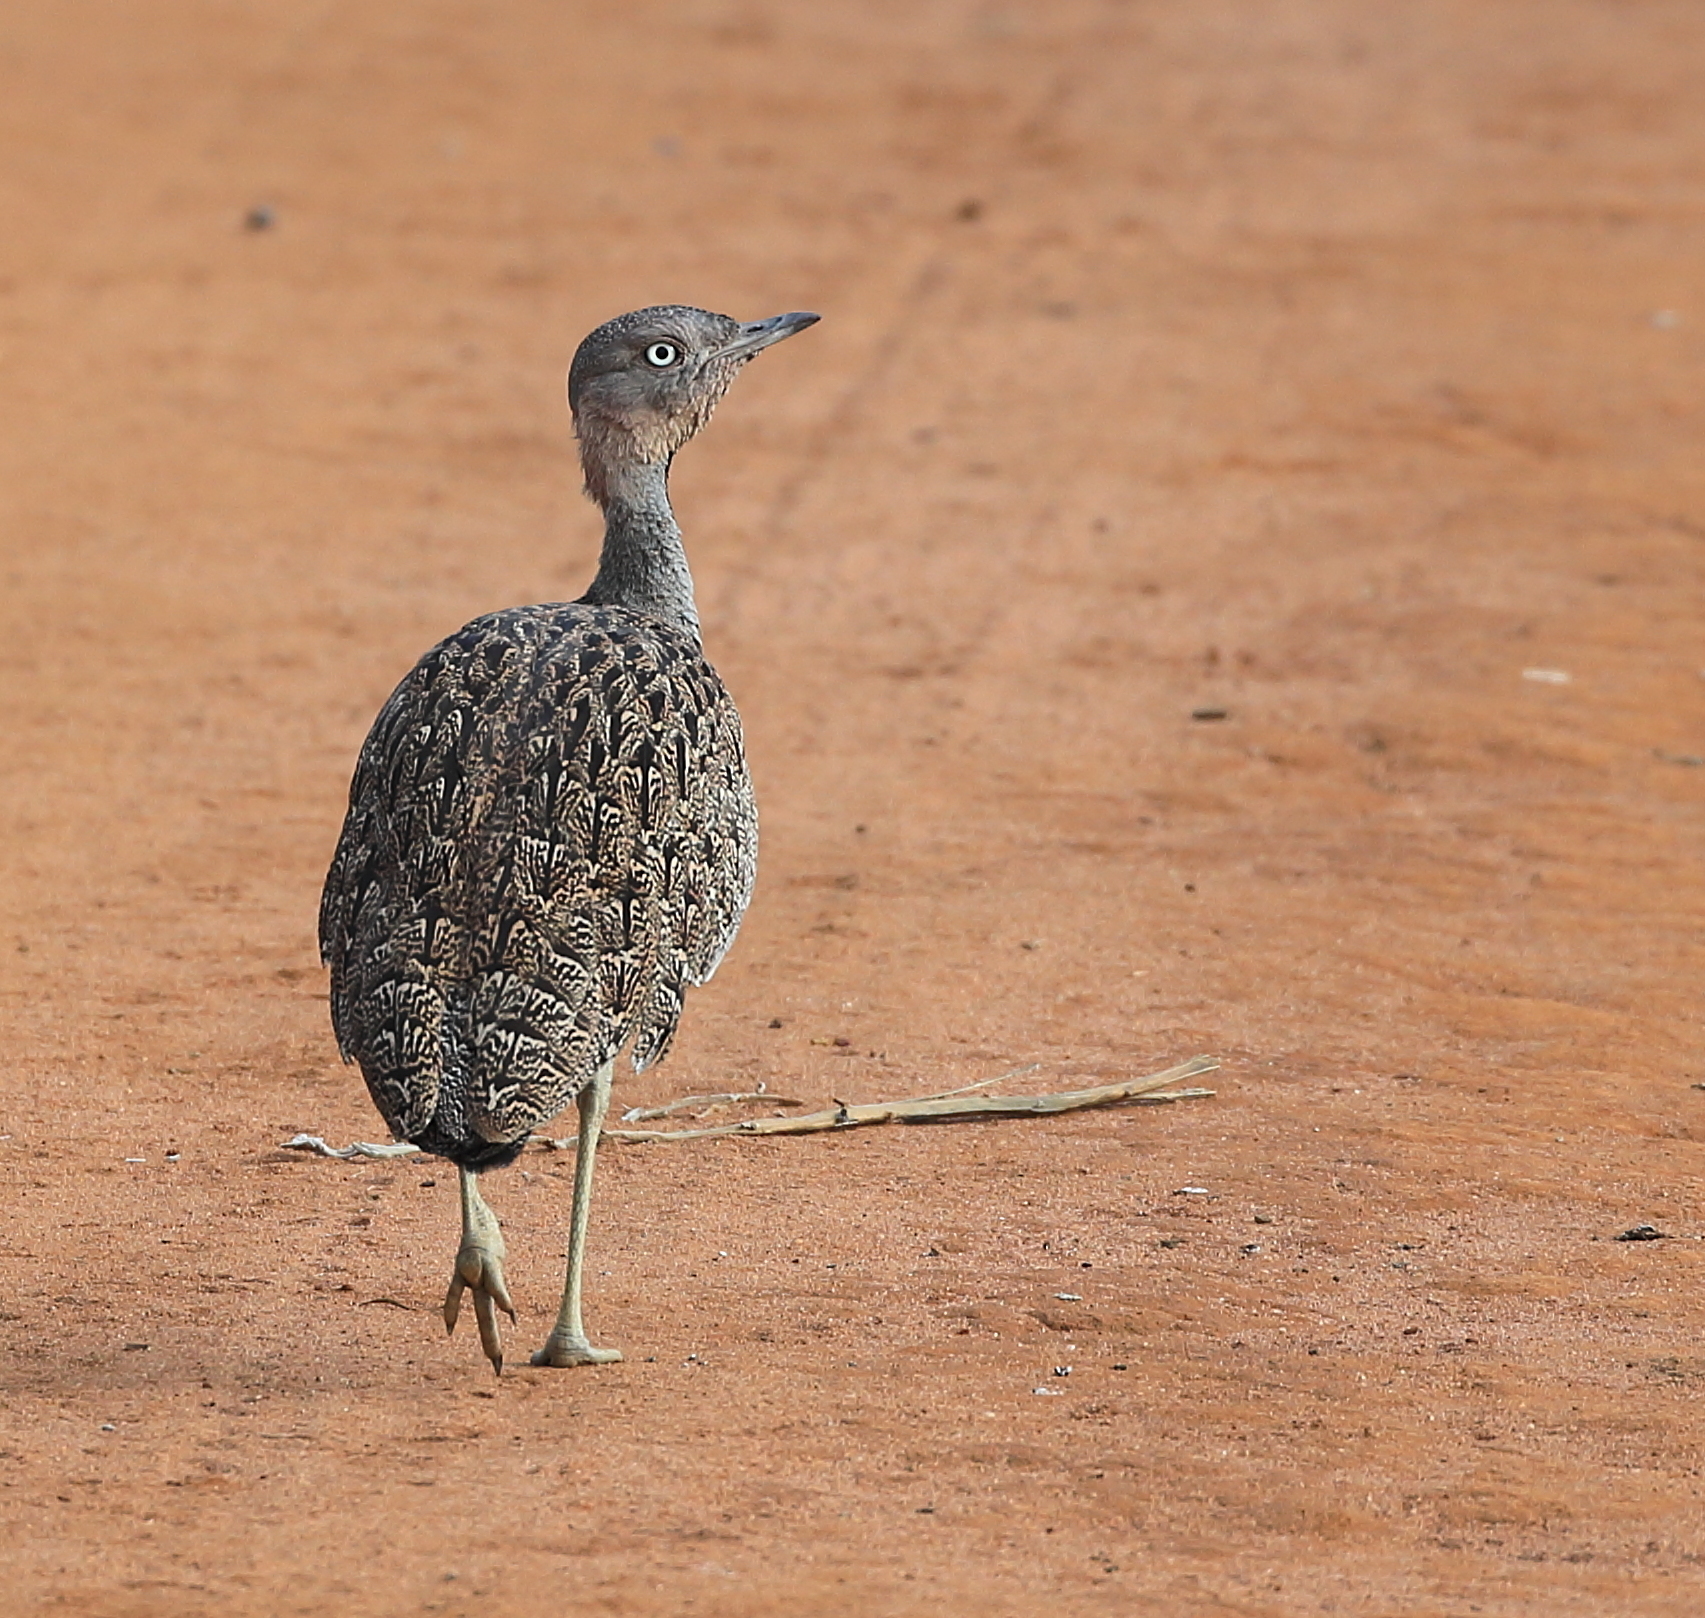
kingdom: Animalia
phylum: Chordata
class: Aves
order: Otidiformes
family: Otididae
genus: Lophotis
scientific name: Lophotis gindiana
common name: Buff-crested bustard
